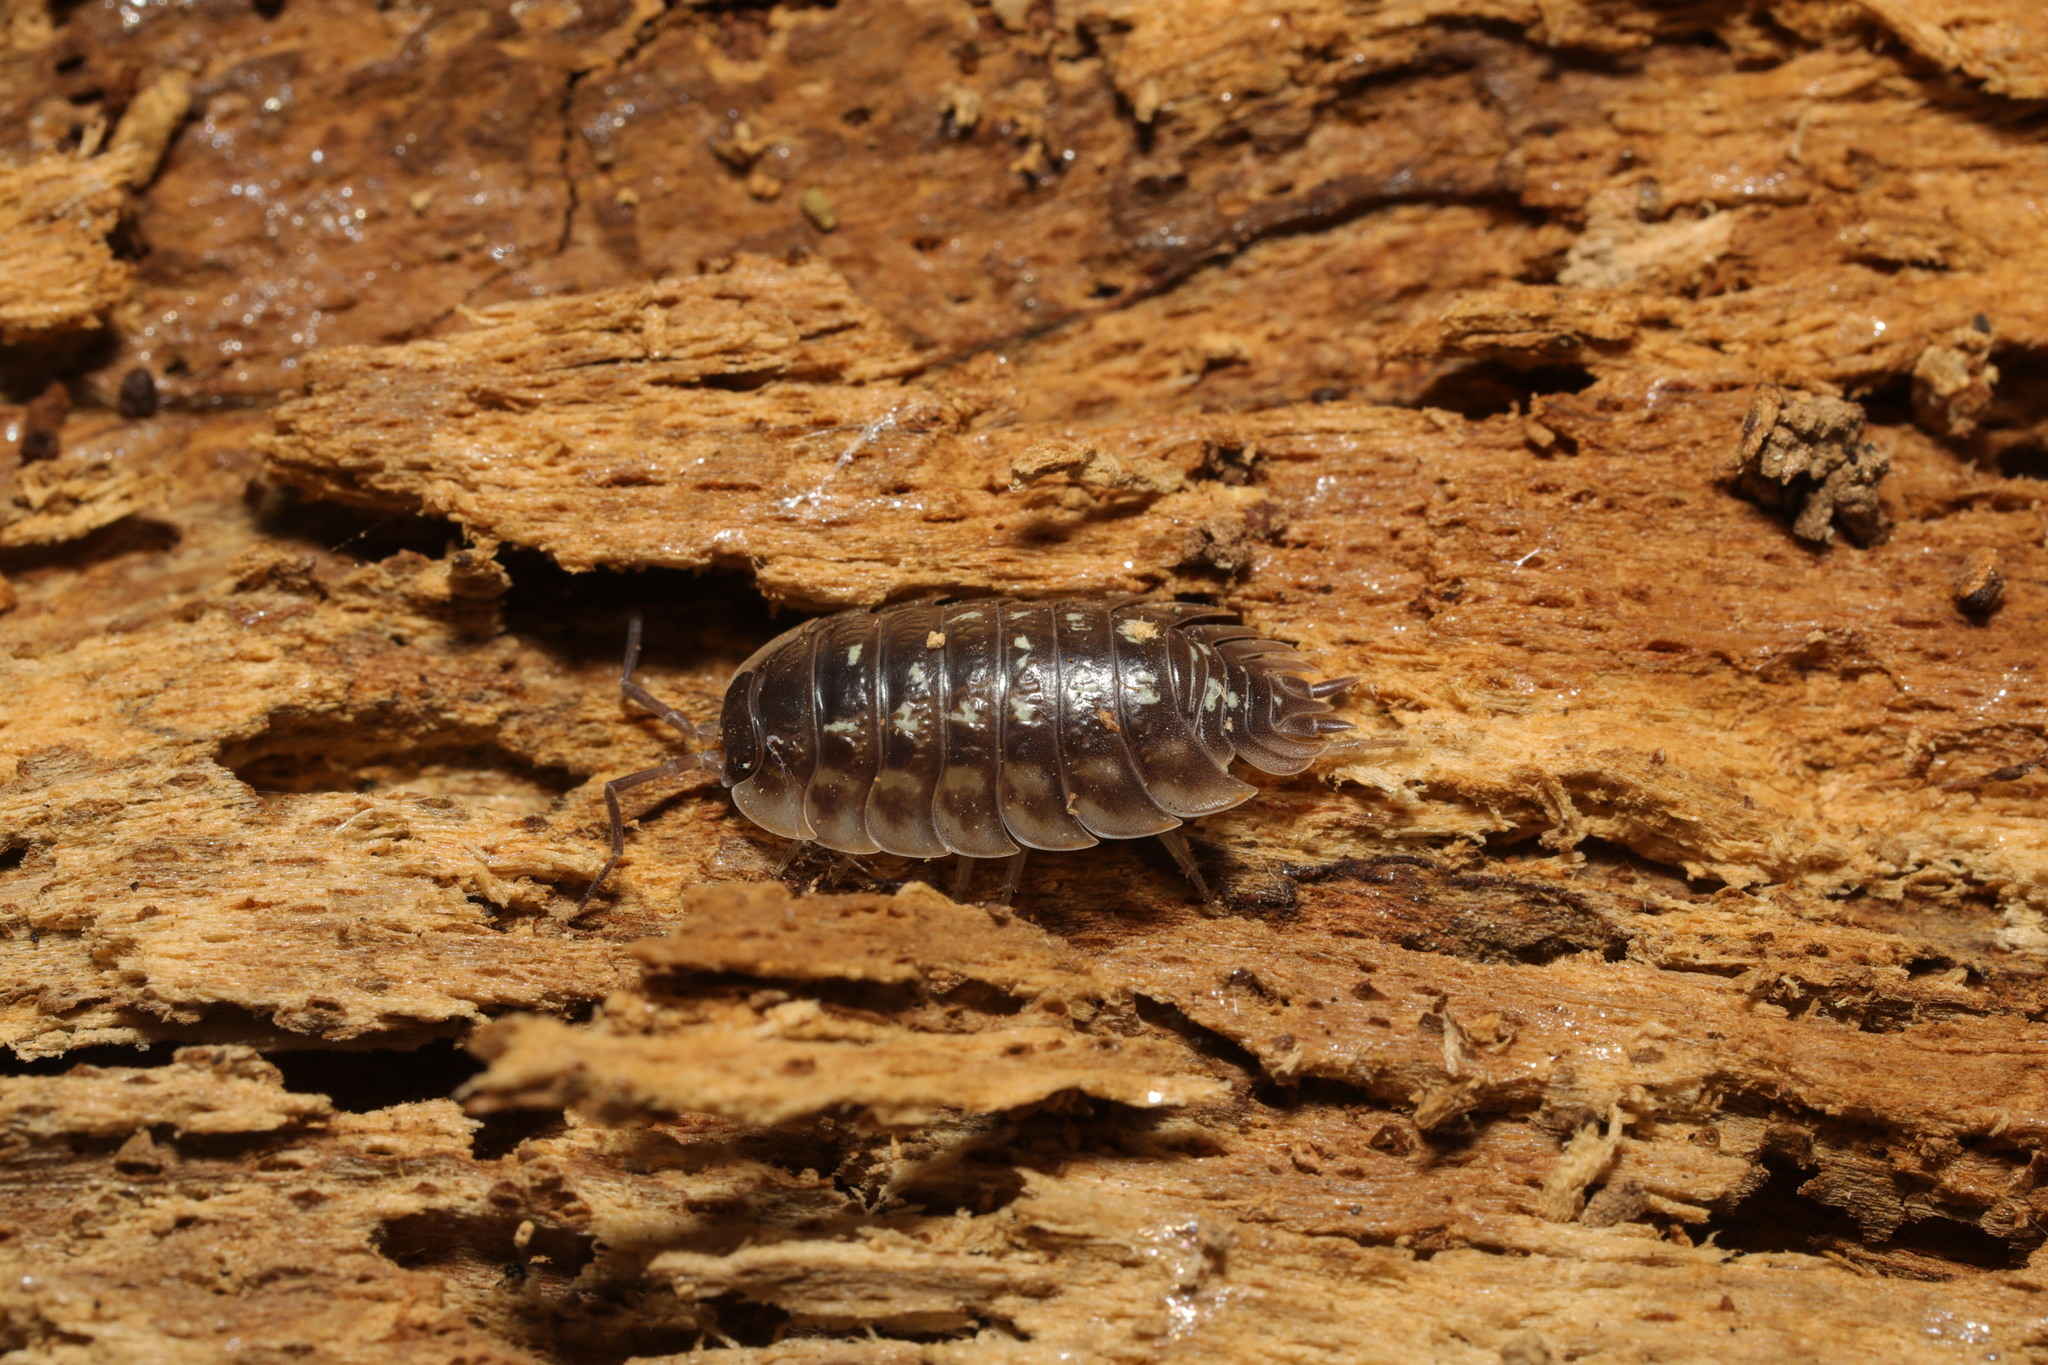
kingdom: Animalia
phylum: Arthropoda
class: Malacostraca
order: Isopoda
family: Oniscidae
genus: Oniscus
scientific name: Oniscus asellus
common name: Common shiny woodlouse
